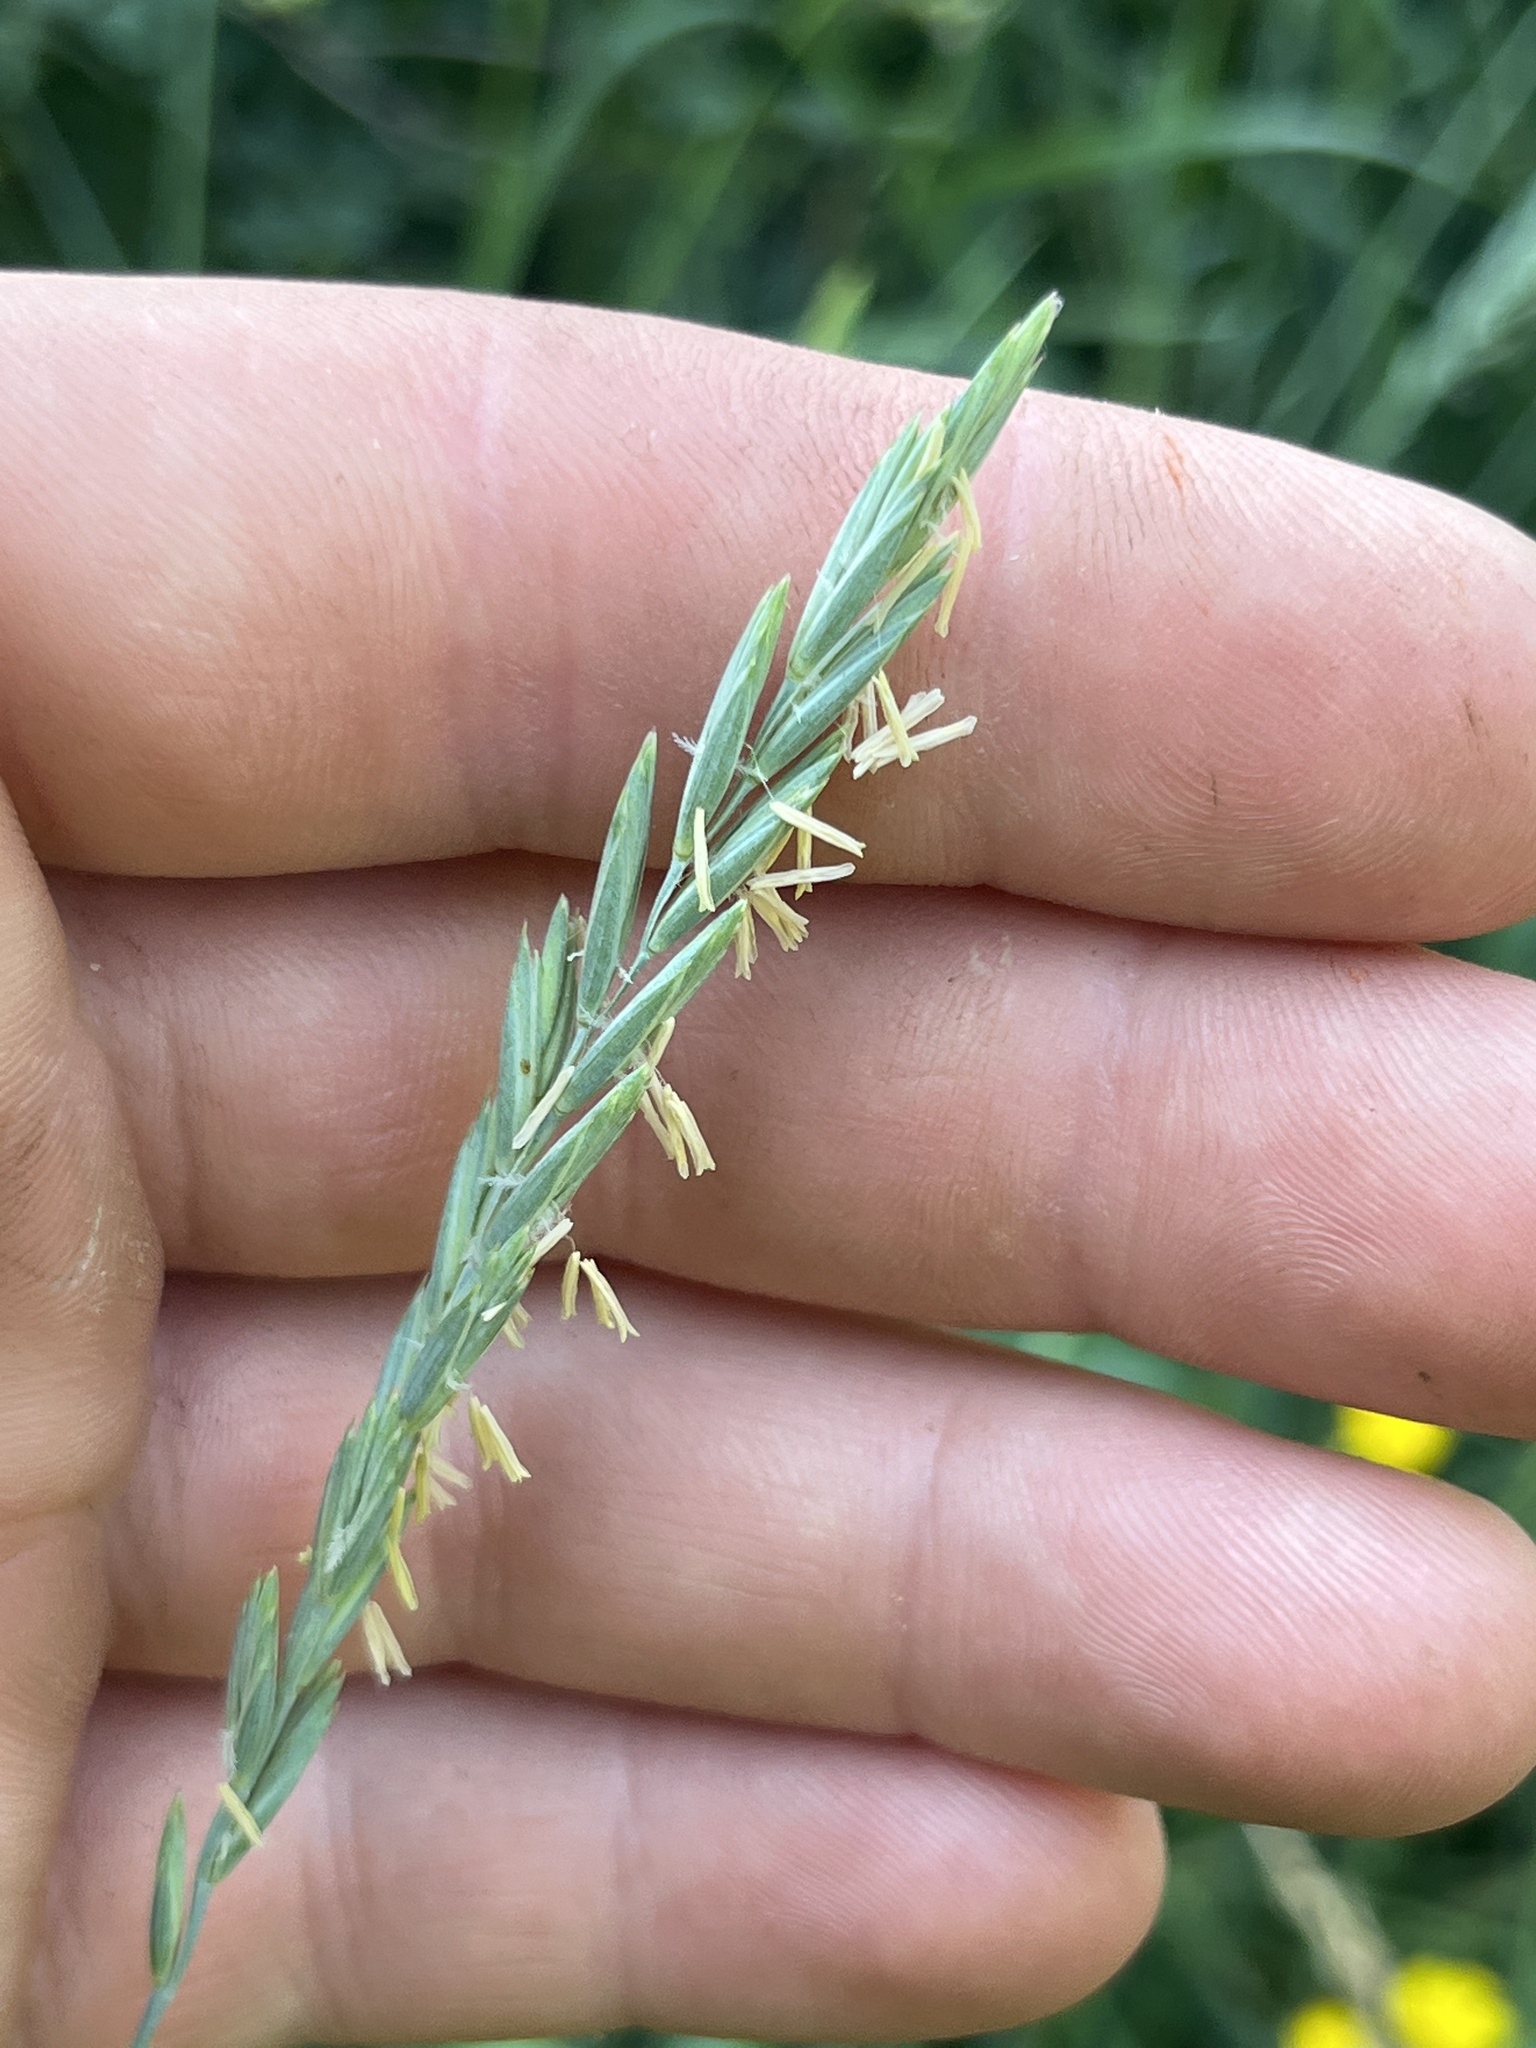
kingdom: Plantae
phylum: Tracheophyta
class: Liliopsida
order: Poales
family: Poaceae
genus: Elymus
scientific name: Elymus repens
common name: Quackgrass
